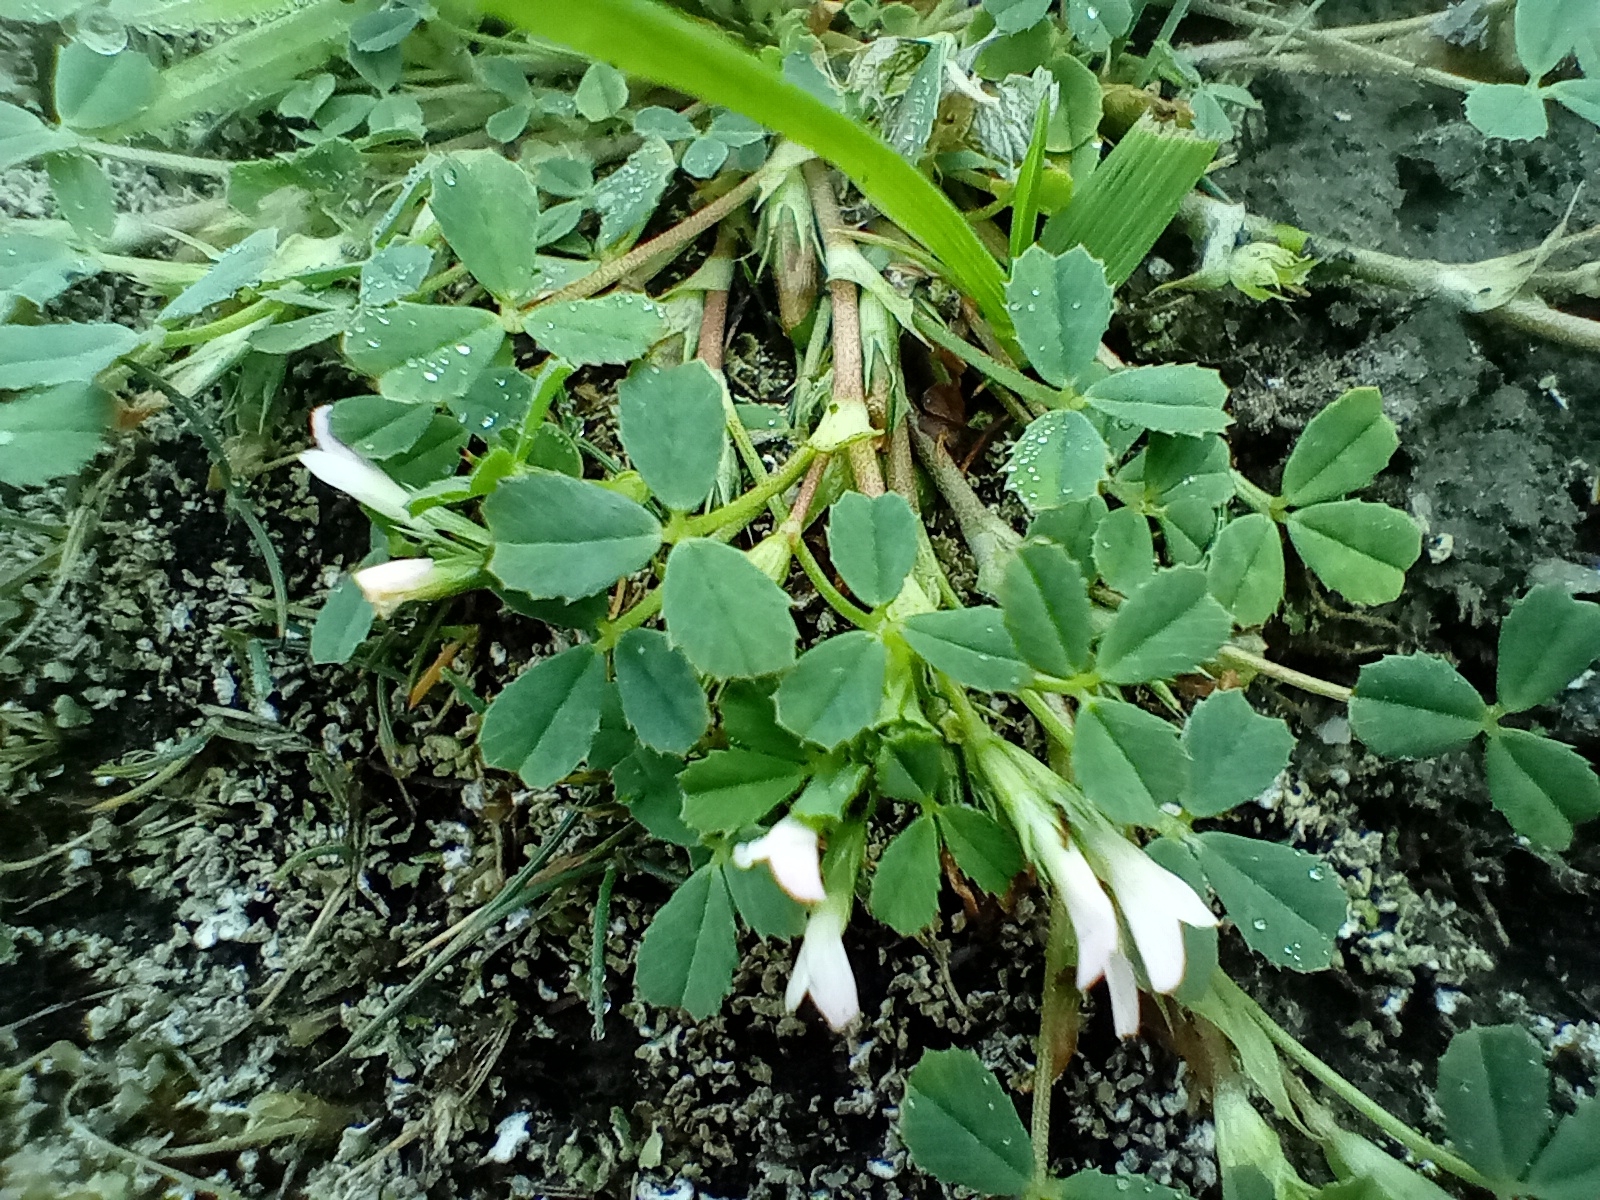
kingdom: Plantae
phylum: Tracheophyta
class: Magnoliopsida
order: Fabales
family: Fabaceae
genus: Trifolium
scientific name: Trifolium ornithopodioides
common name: Bird's-foot clover
